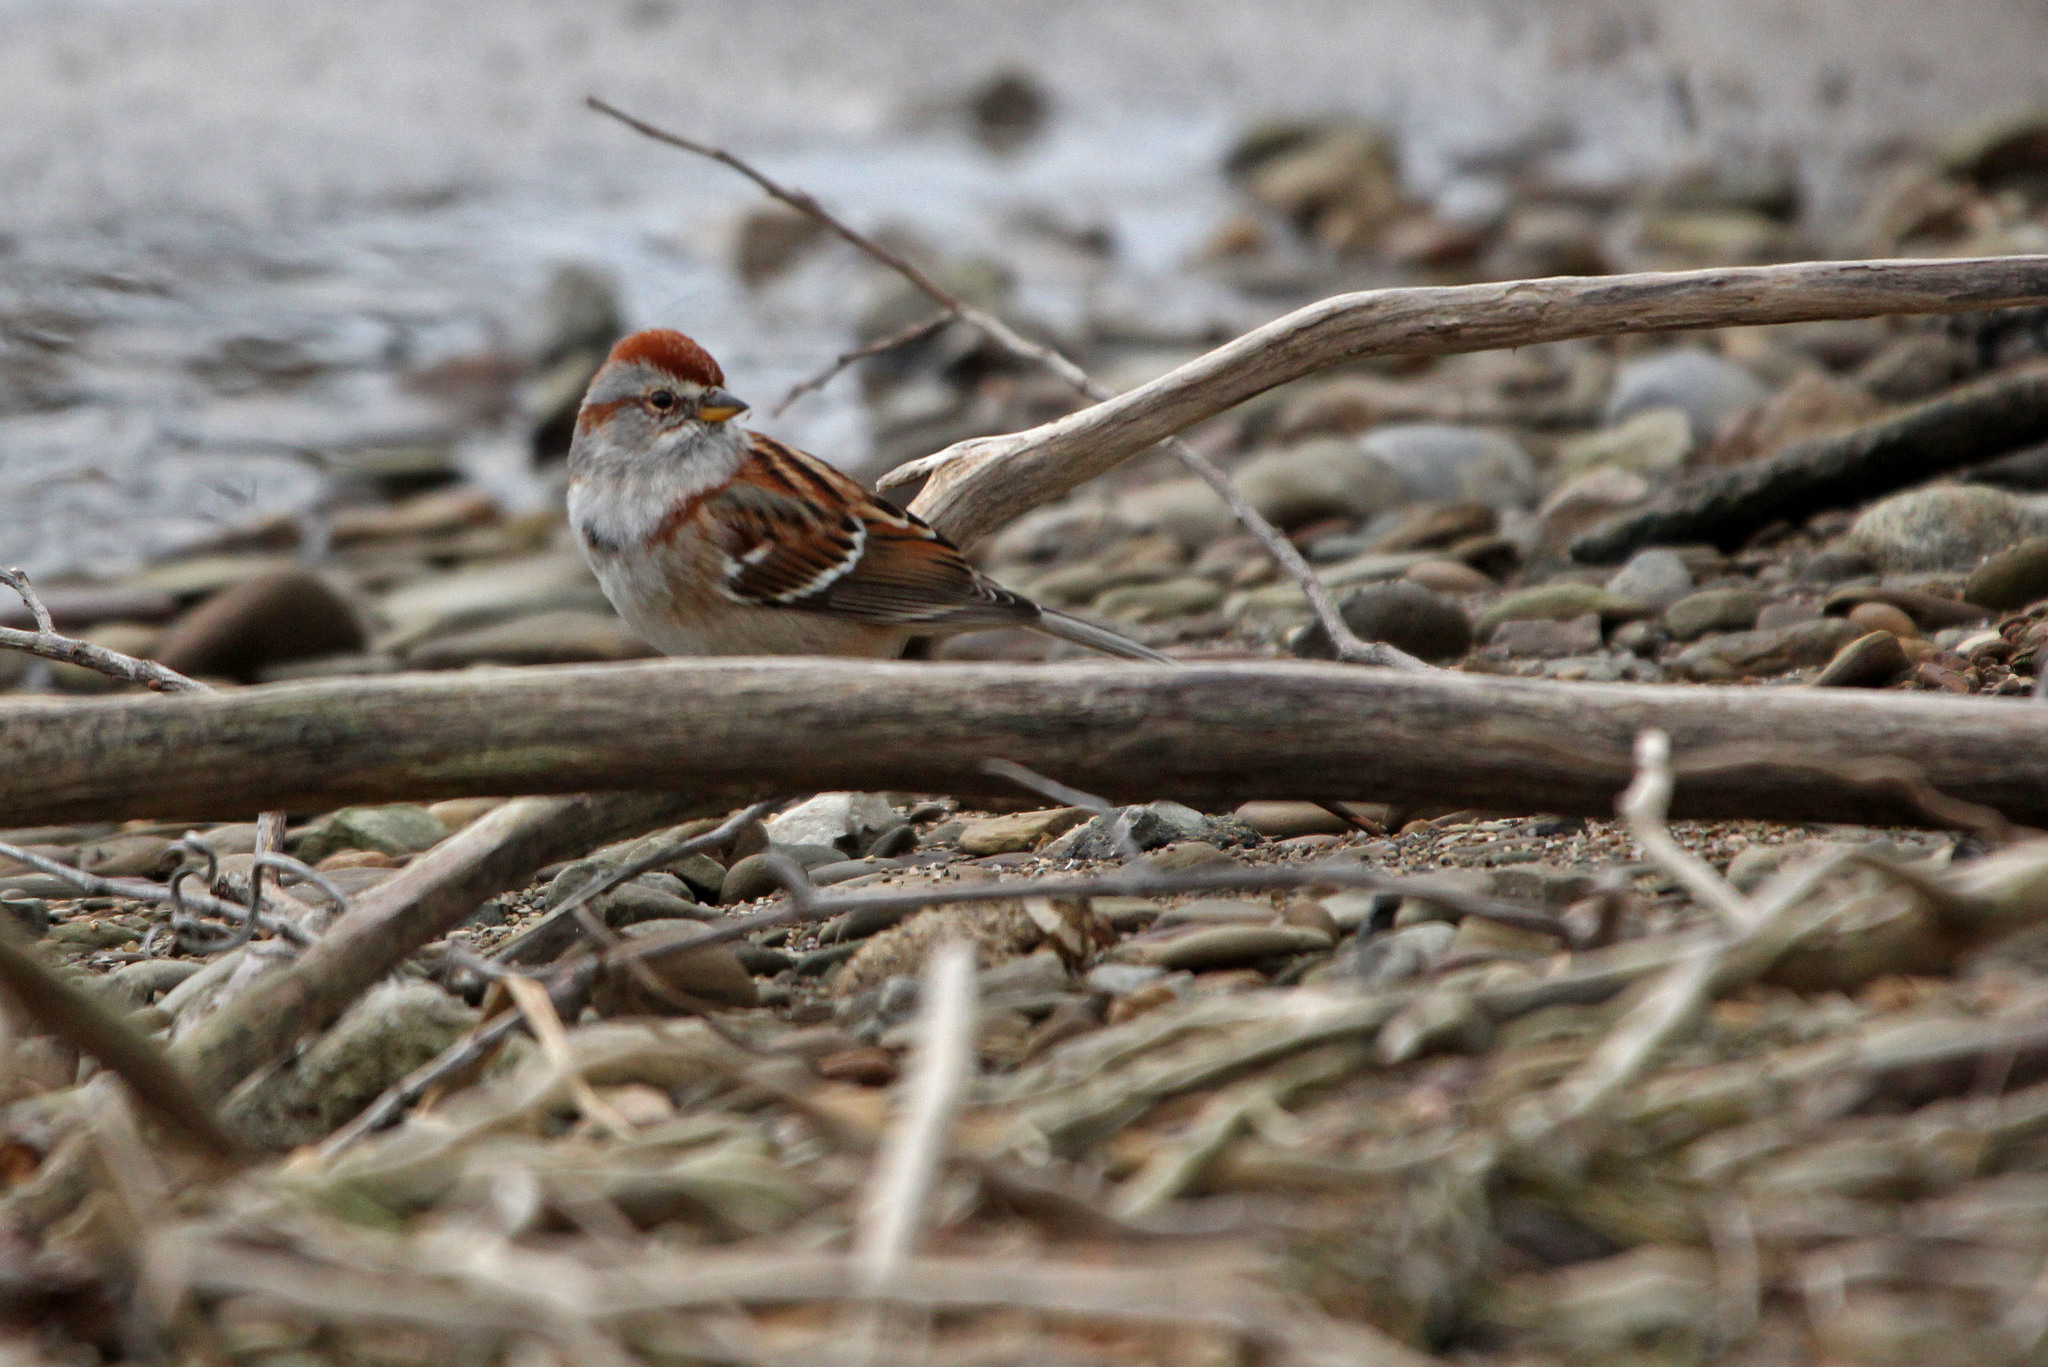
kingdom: Animalia
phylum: Chordata
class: Aves
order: Passeriformes
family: Passerellidae
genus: Spizelloides
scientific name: Spizelloides arborea
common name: American tree sparrow
